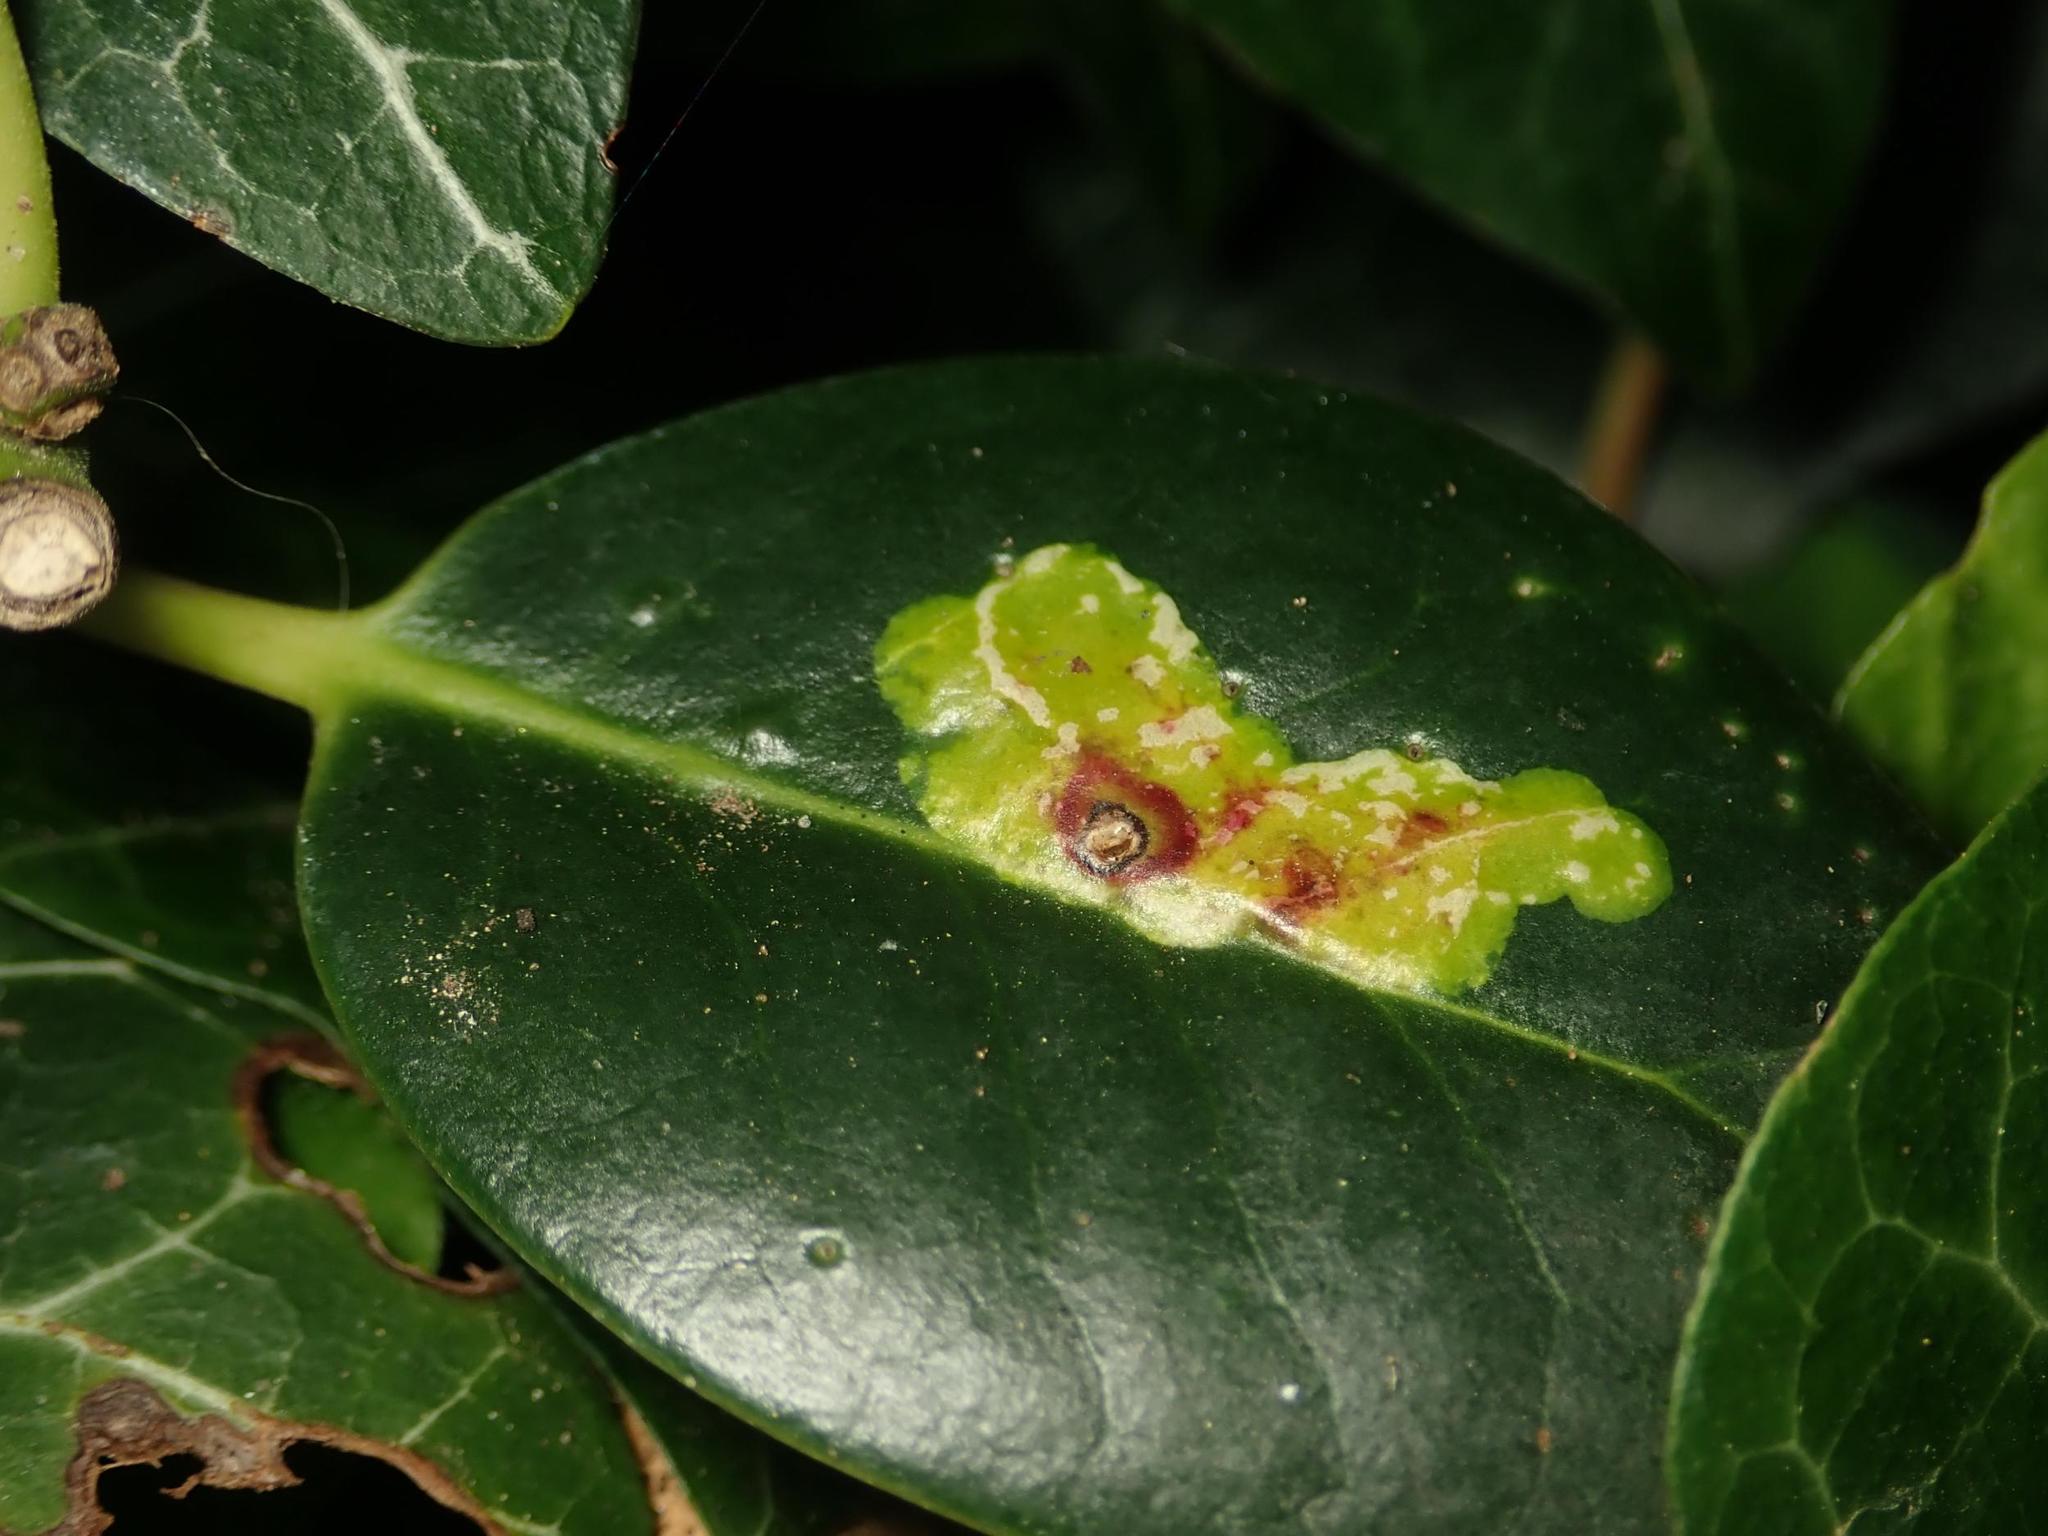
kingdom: Animalia
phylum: Arthropoda
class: Insecta
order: Diptera
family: Agromyzidae
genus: Phytomyza
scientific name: Phytomyza ilicis
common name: Holly leafminer
